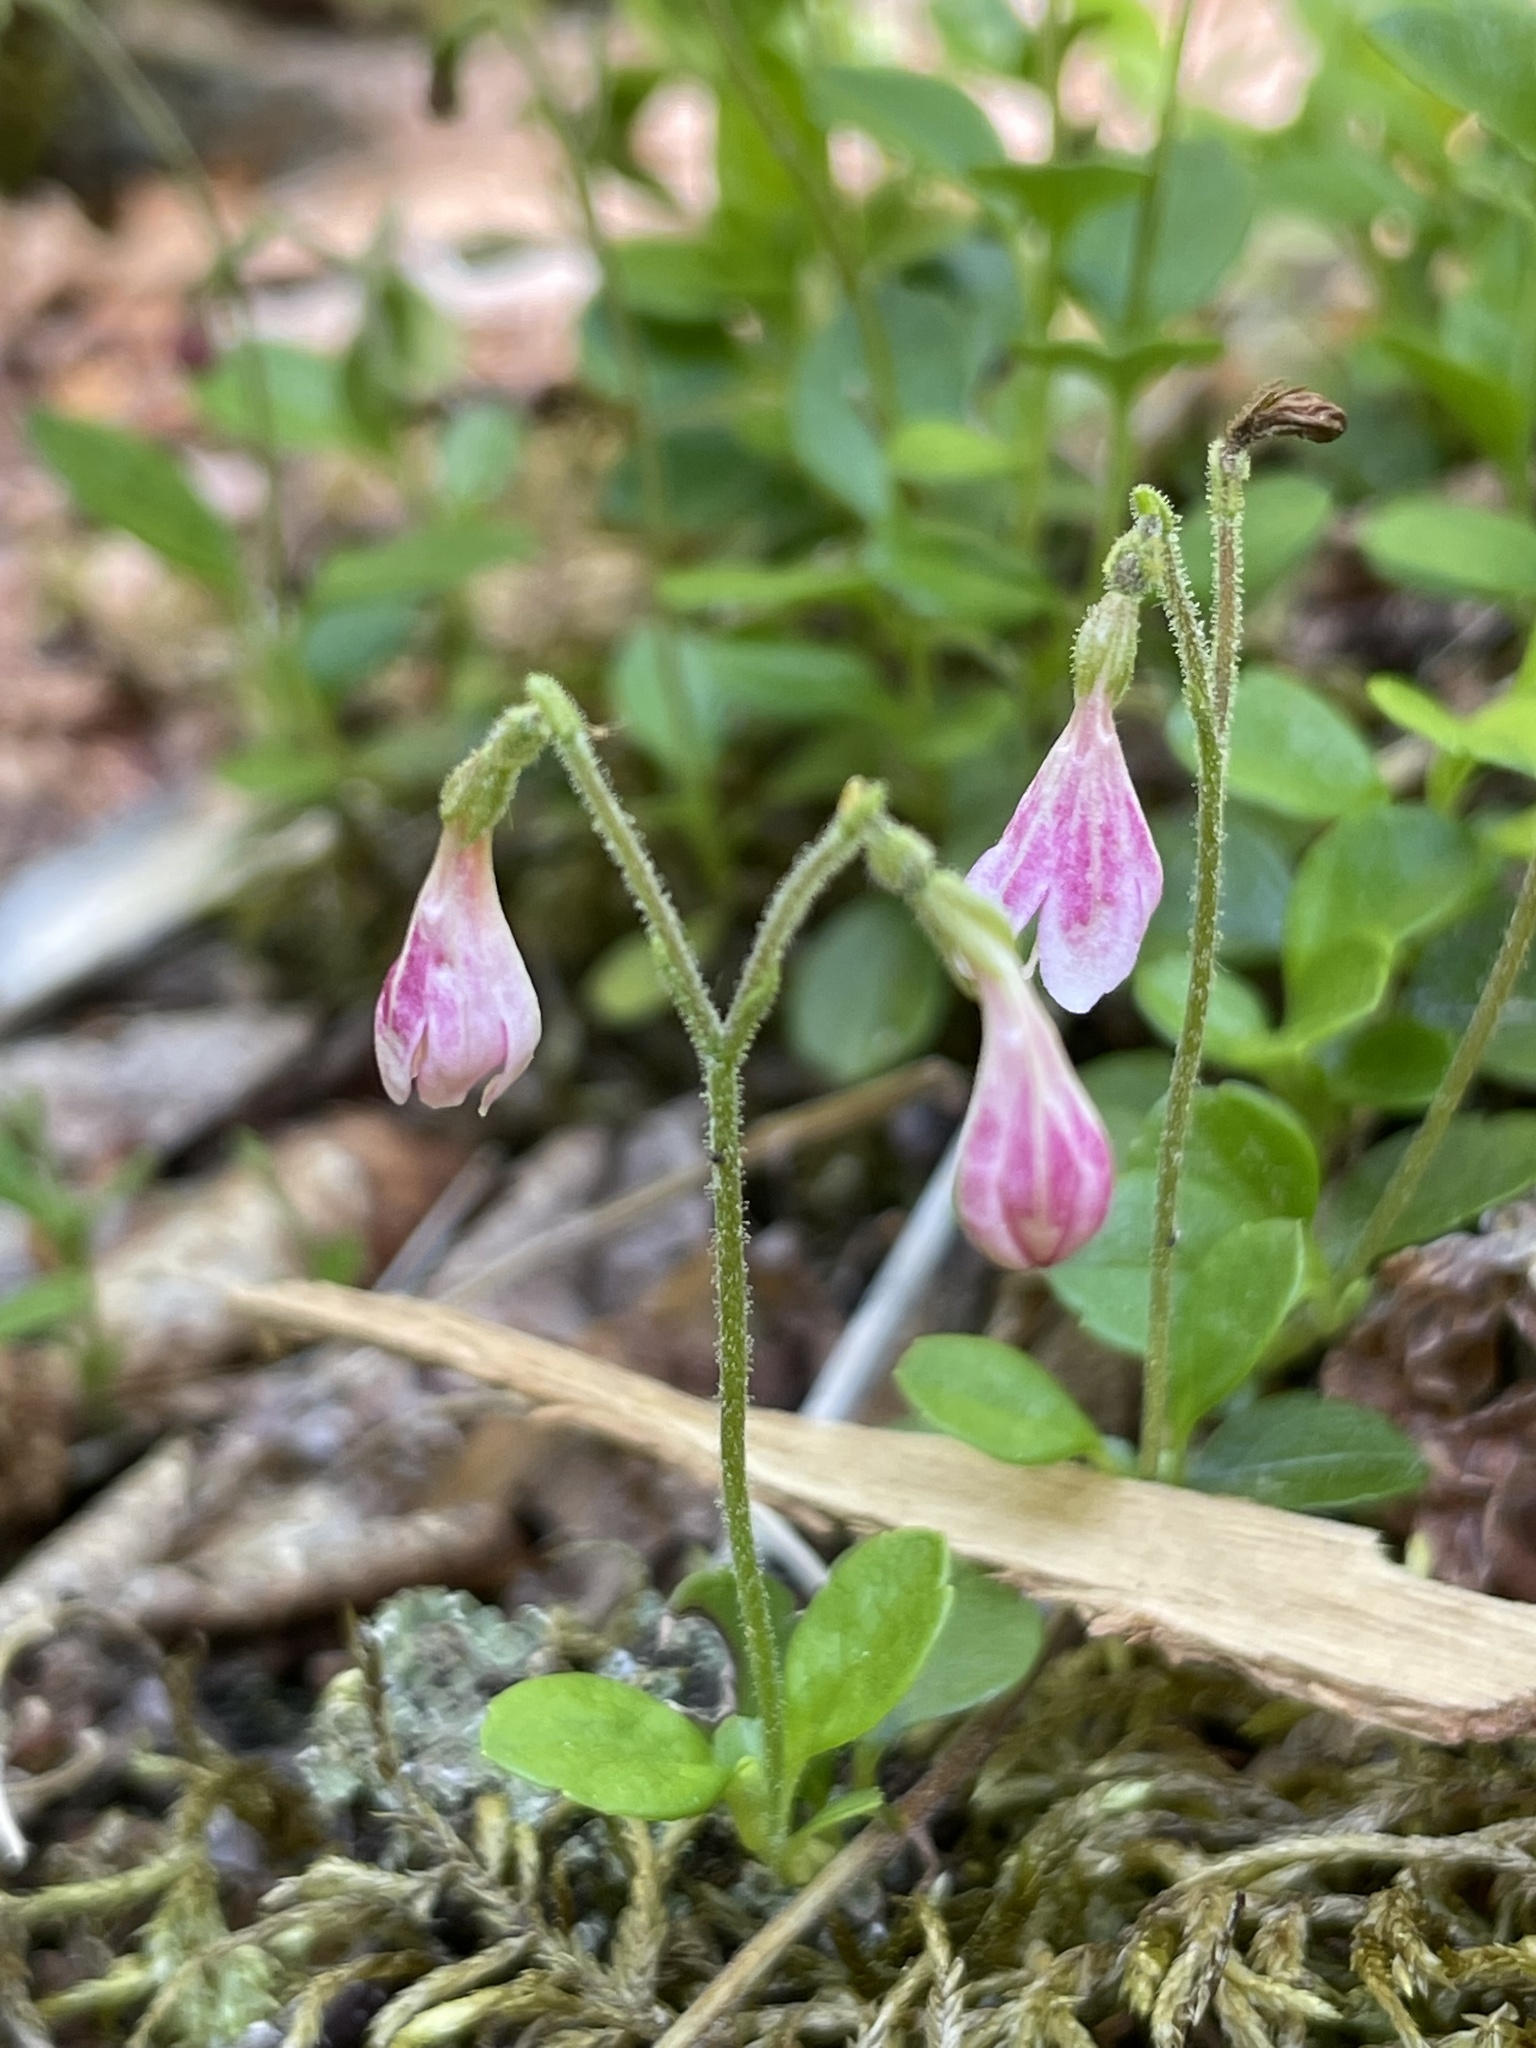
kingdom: Plantae
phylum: Tracheophyta
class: Magnoliopsida
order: Dipsacales
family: Caprifoliaceae
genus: Linnaea
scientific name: Linnaea borealis
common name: Twinflower
